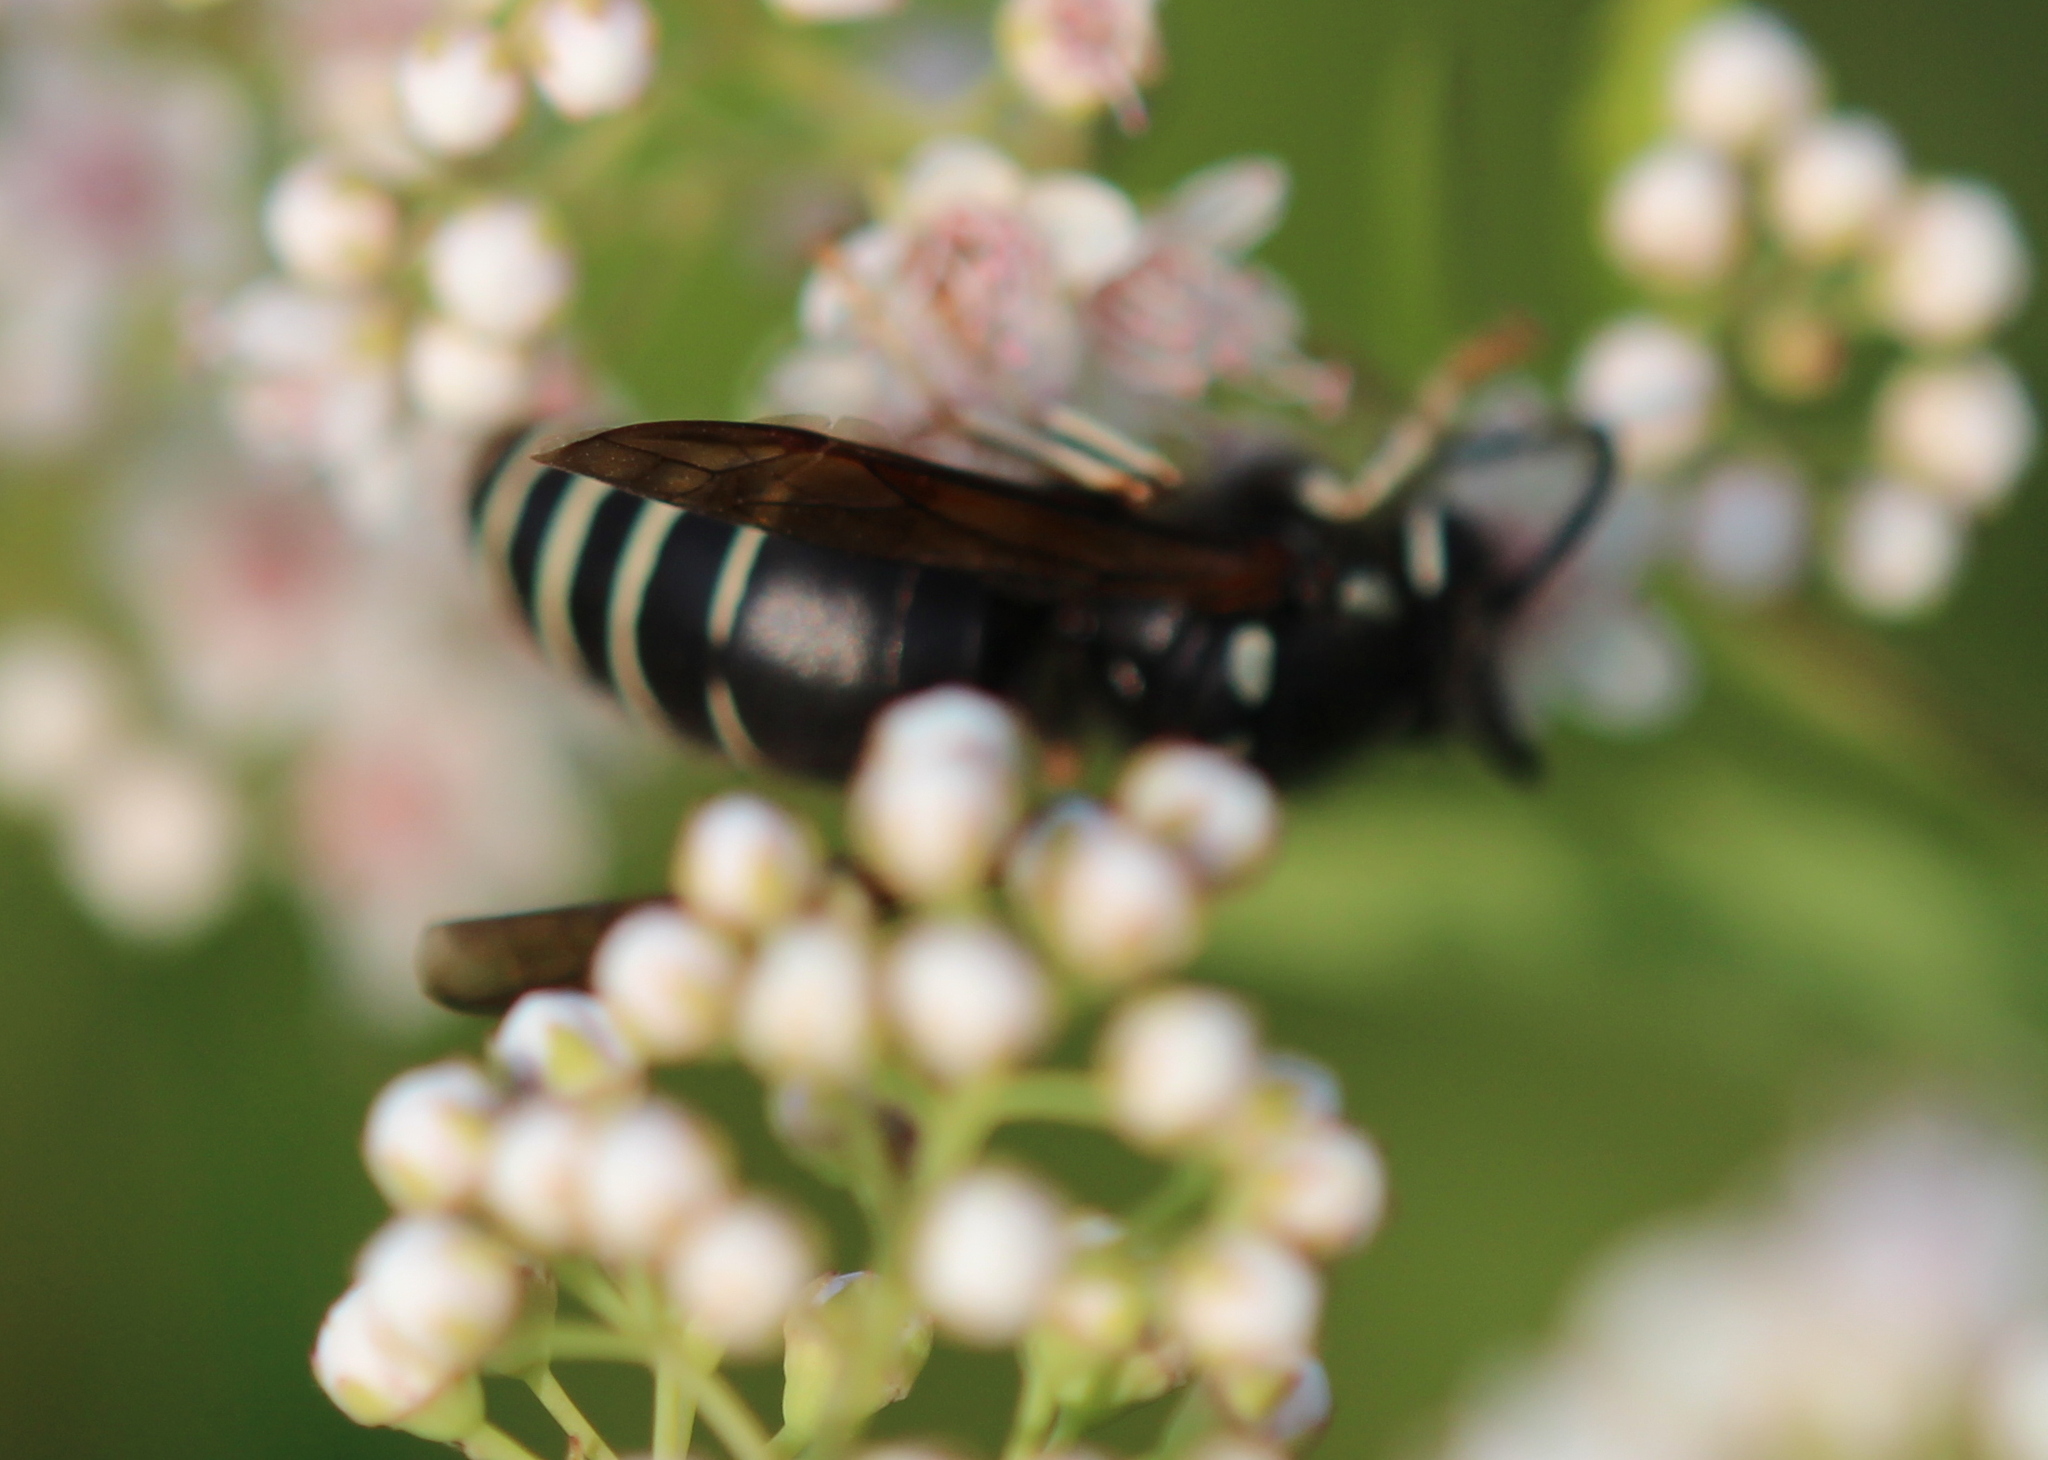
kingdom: Animalia
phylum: Arthropoda
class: Insecta
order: Hymenoptera
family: Vespidae
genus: Vespula
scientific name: Vespula consobrina
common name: Blackjacket
